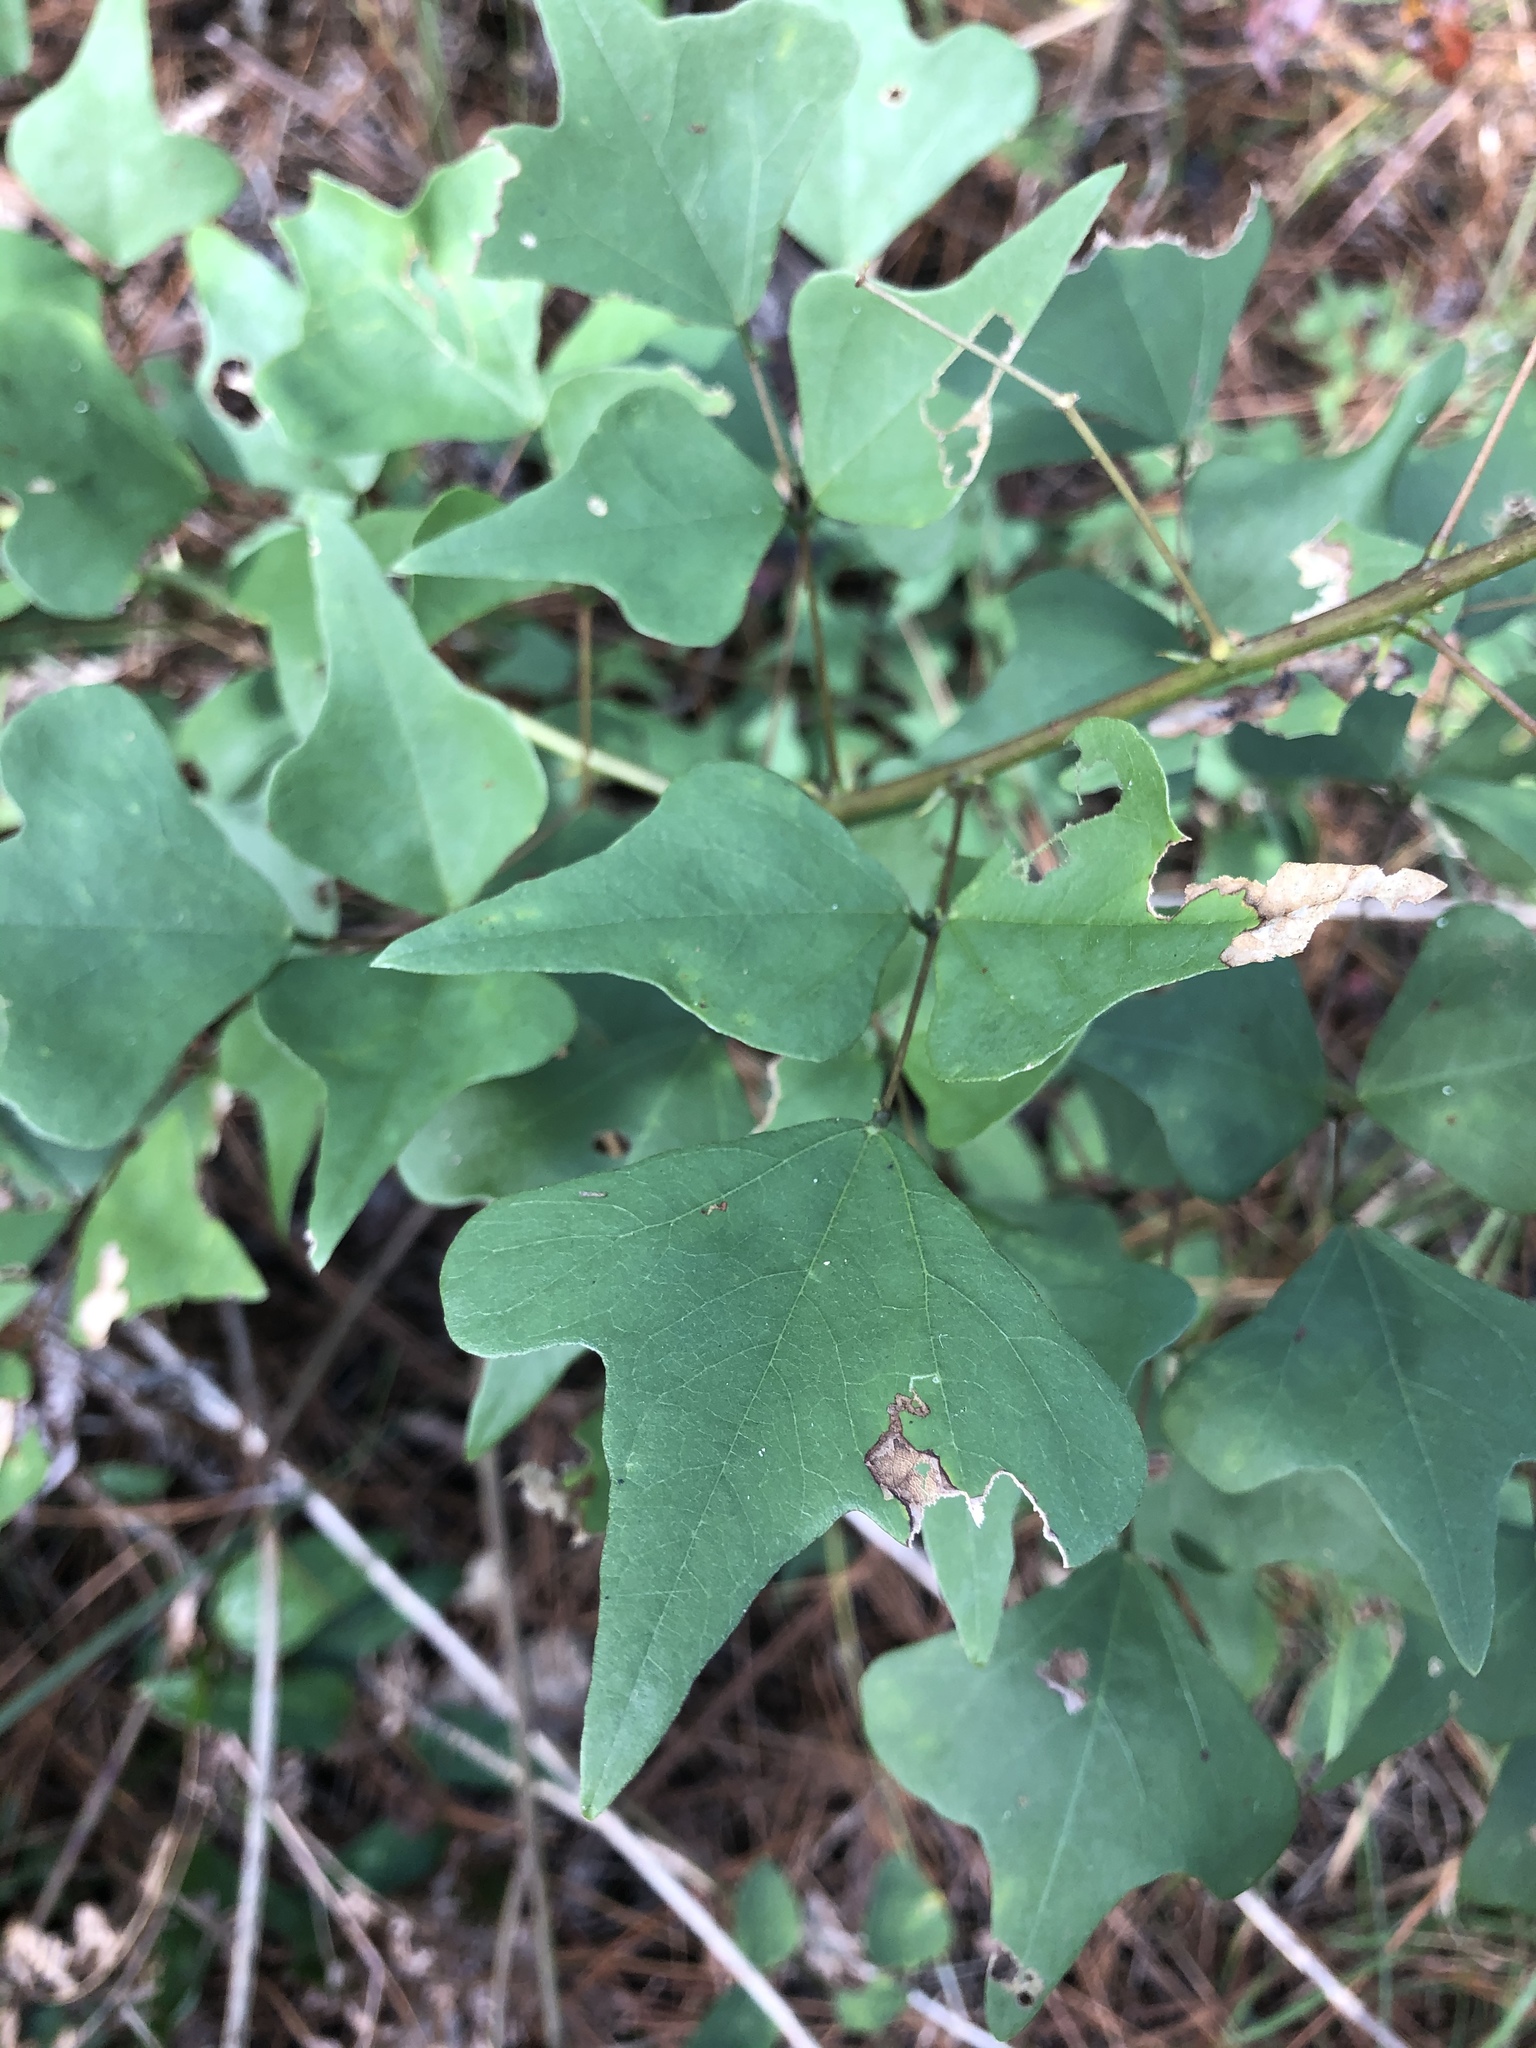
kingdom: Plantae
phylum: Tracheophyta
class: Magnoliopsida
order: Fabales
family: Fabaceae
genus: Erythrina
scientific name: Erythrina herbacea
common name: Coral-bean
